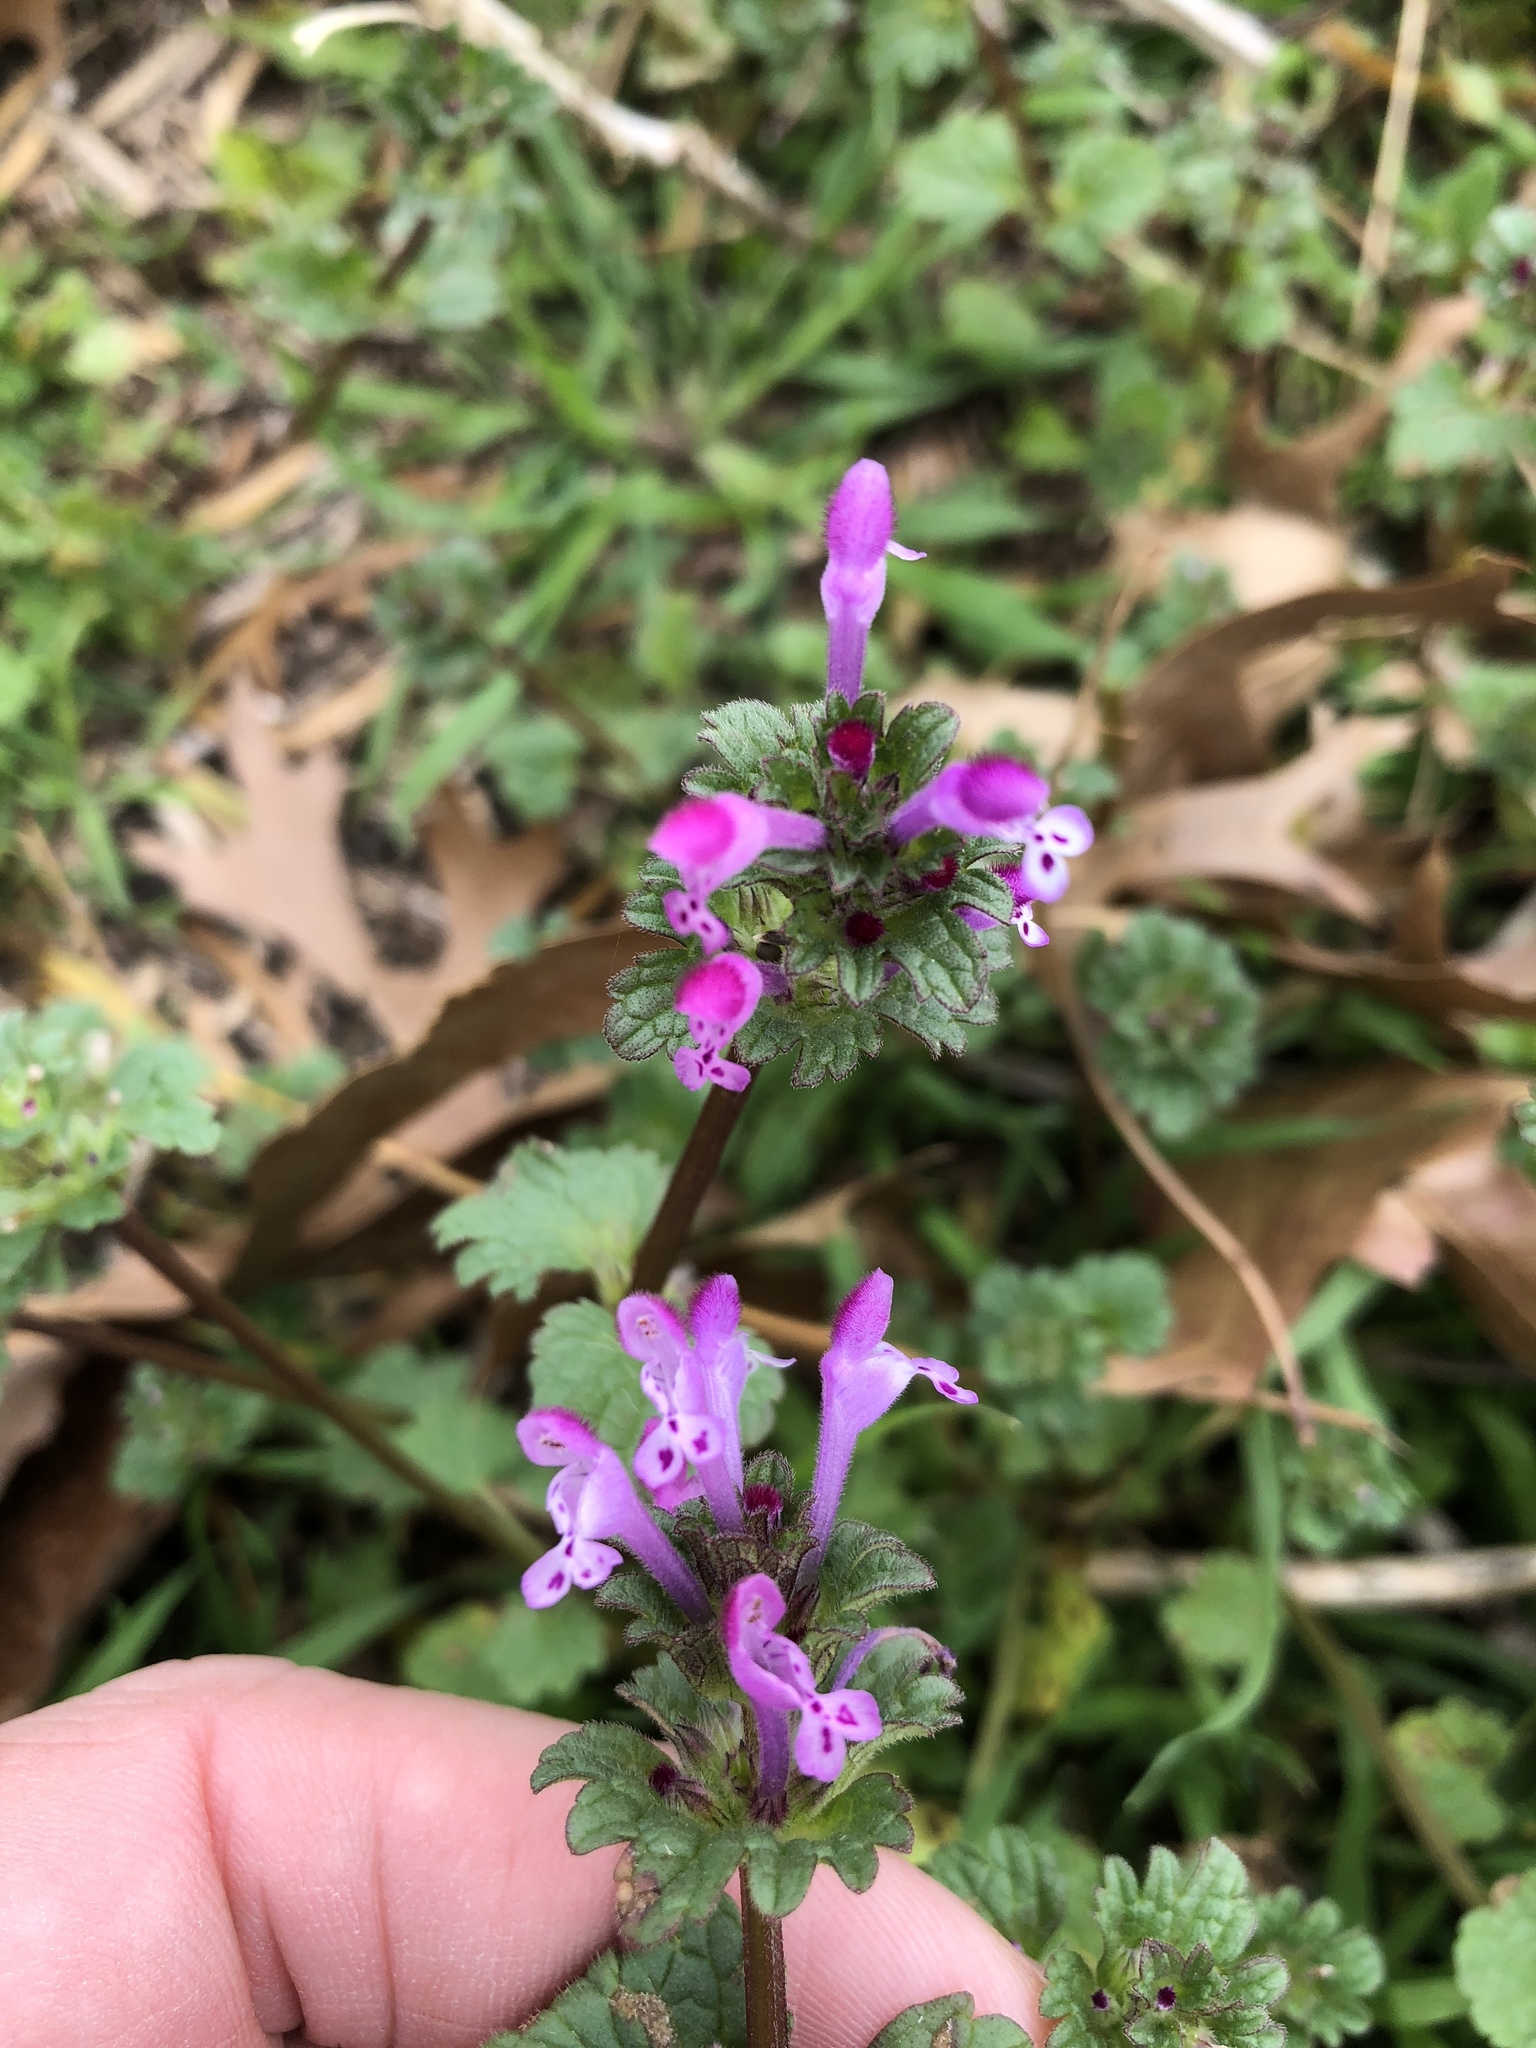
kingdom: Plantae
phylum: Tracheophyta
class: Magnoliopsida
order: Lamiales
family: Lamiaceae
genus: Lamium
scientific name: Lamium amplexicaule
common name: Henbit dead-nettle
